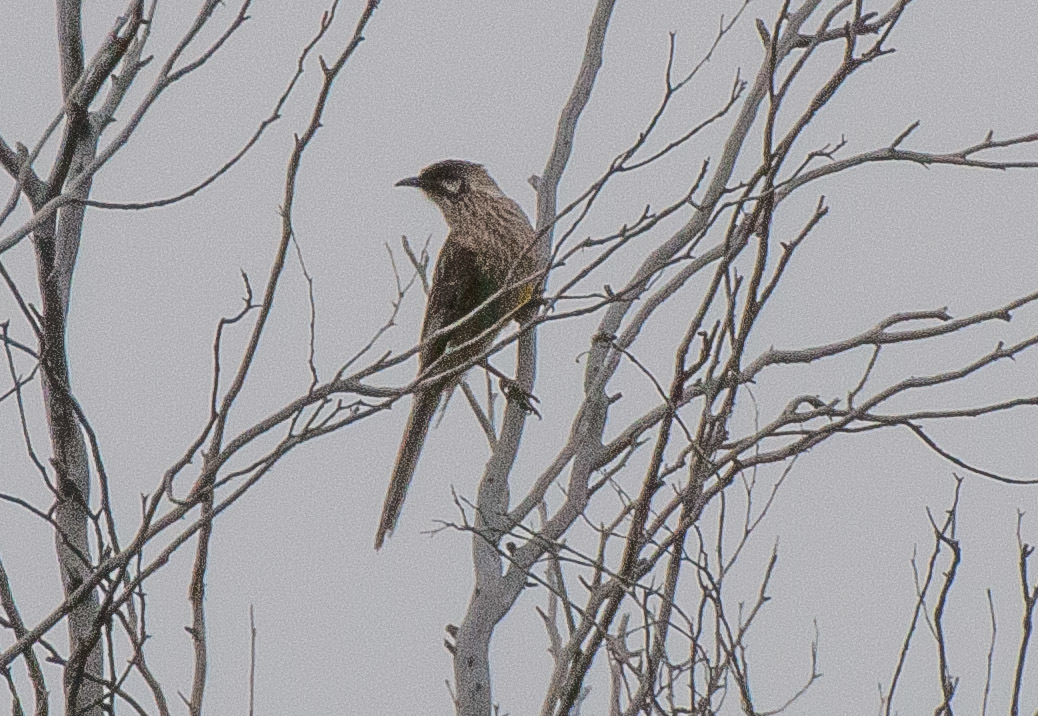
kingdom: Animalia
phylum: Chordata
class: Aves
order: Passeriformes
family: Meliphagidae
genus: Anthochaera
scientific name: Anthochaera carunculata
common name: Red wattlebird
